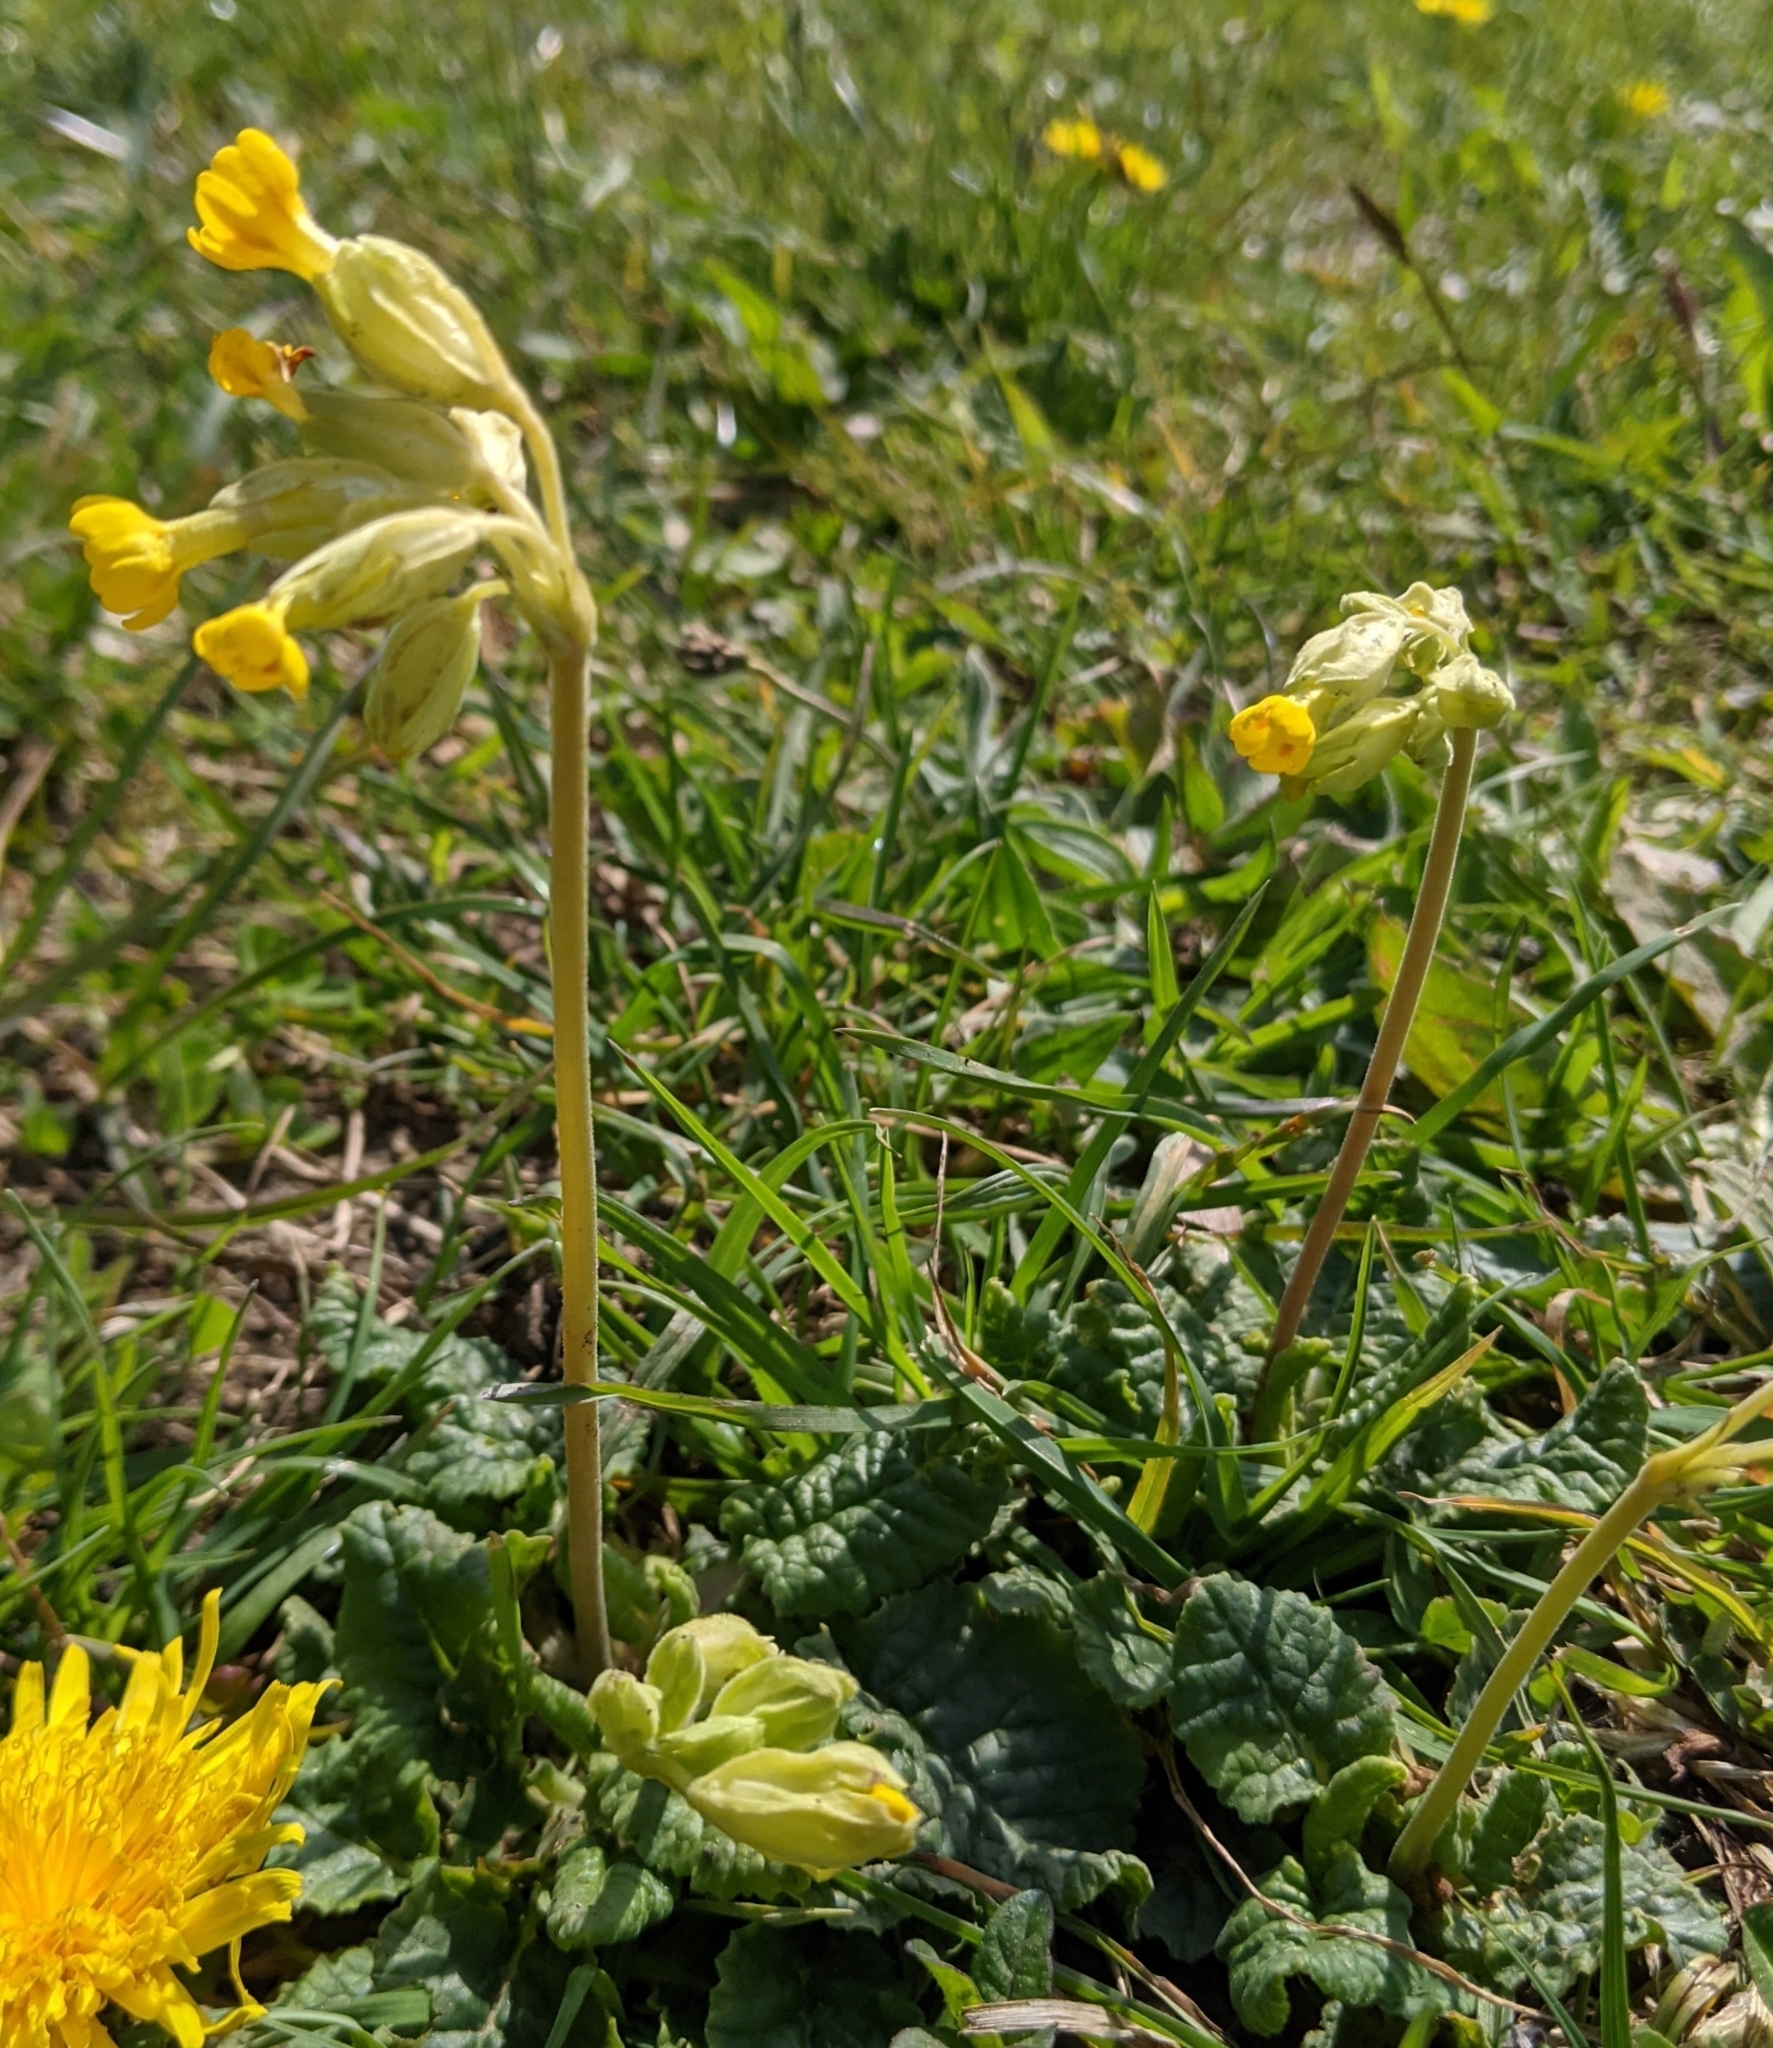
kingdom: Plantae
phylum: Tracheophyta
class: Magnoliopsida
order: Ericales
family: Primulaceae
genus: Primula
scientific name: Primula veris
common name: Cowslip
